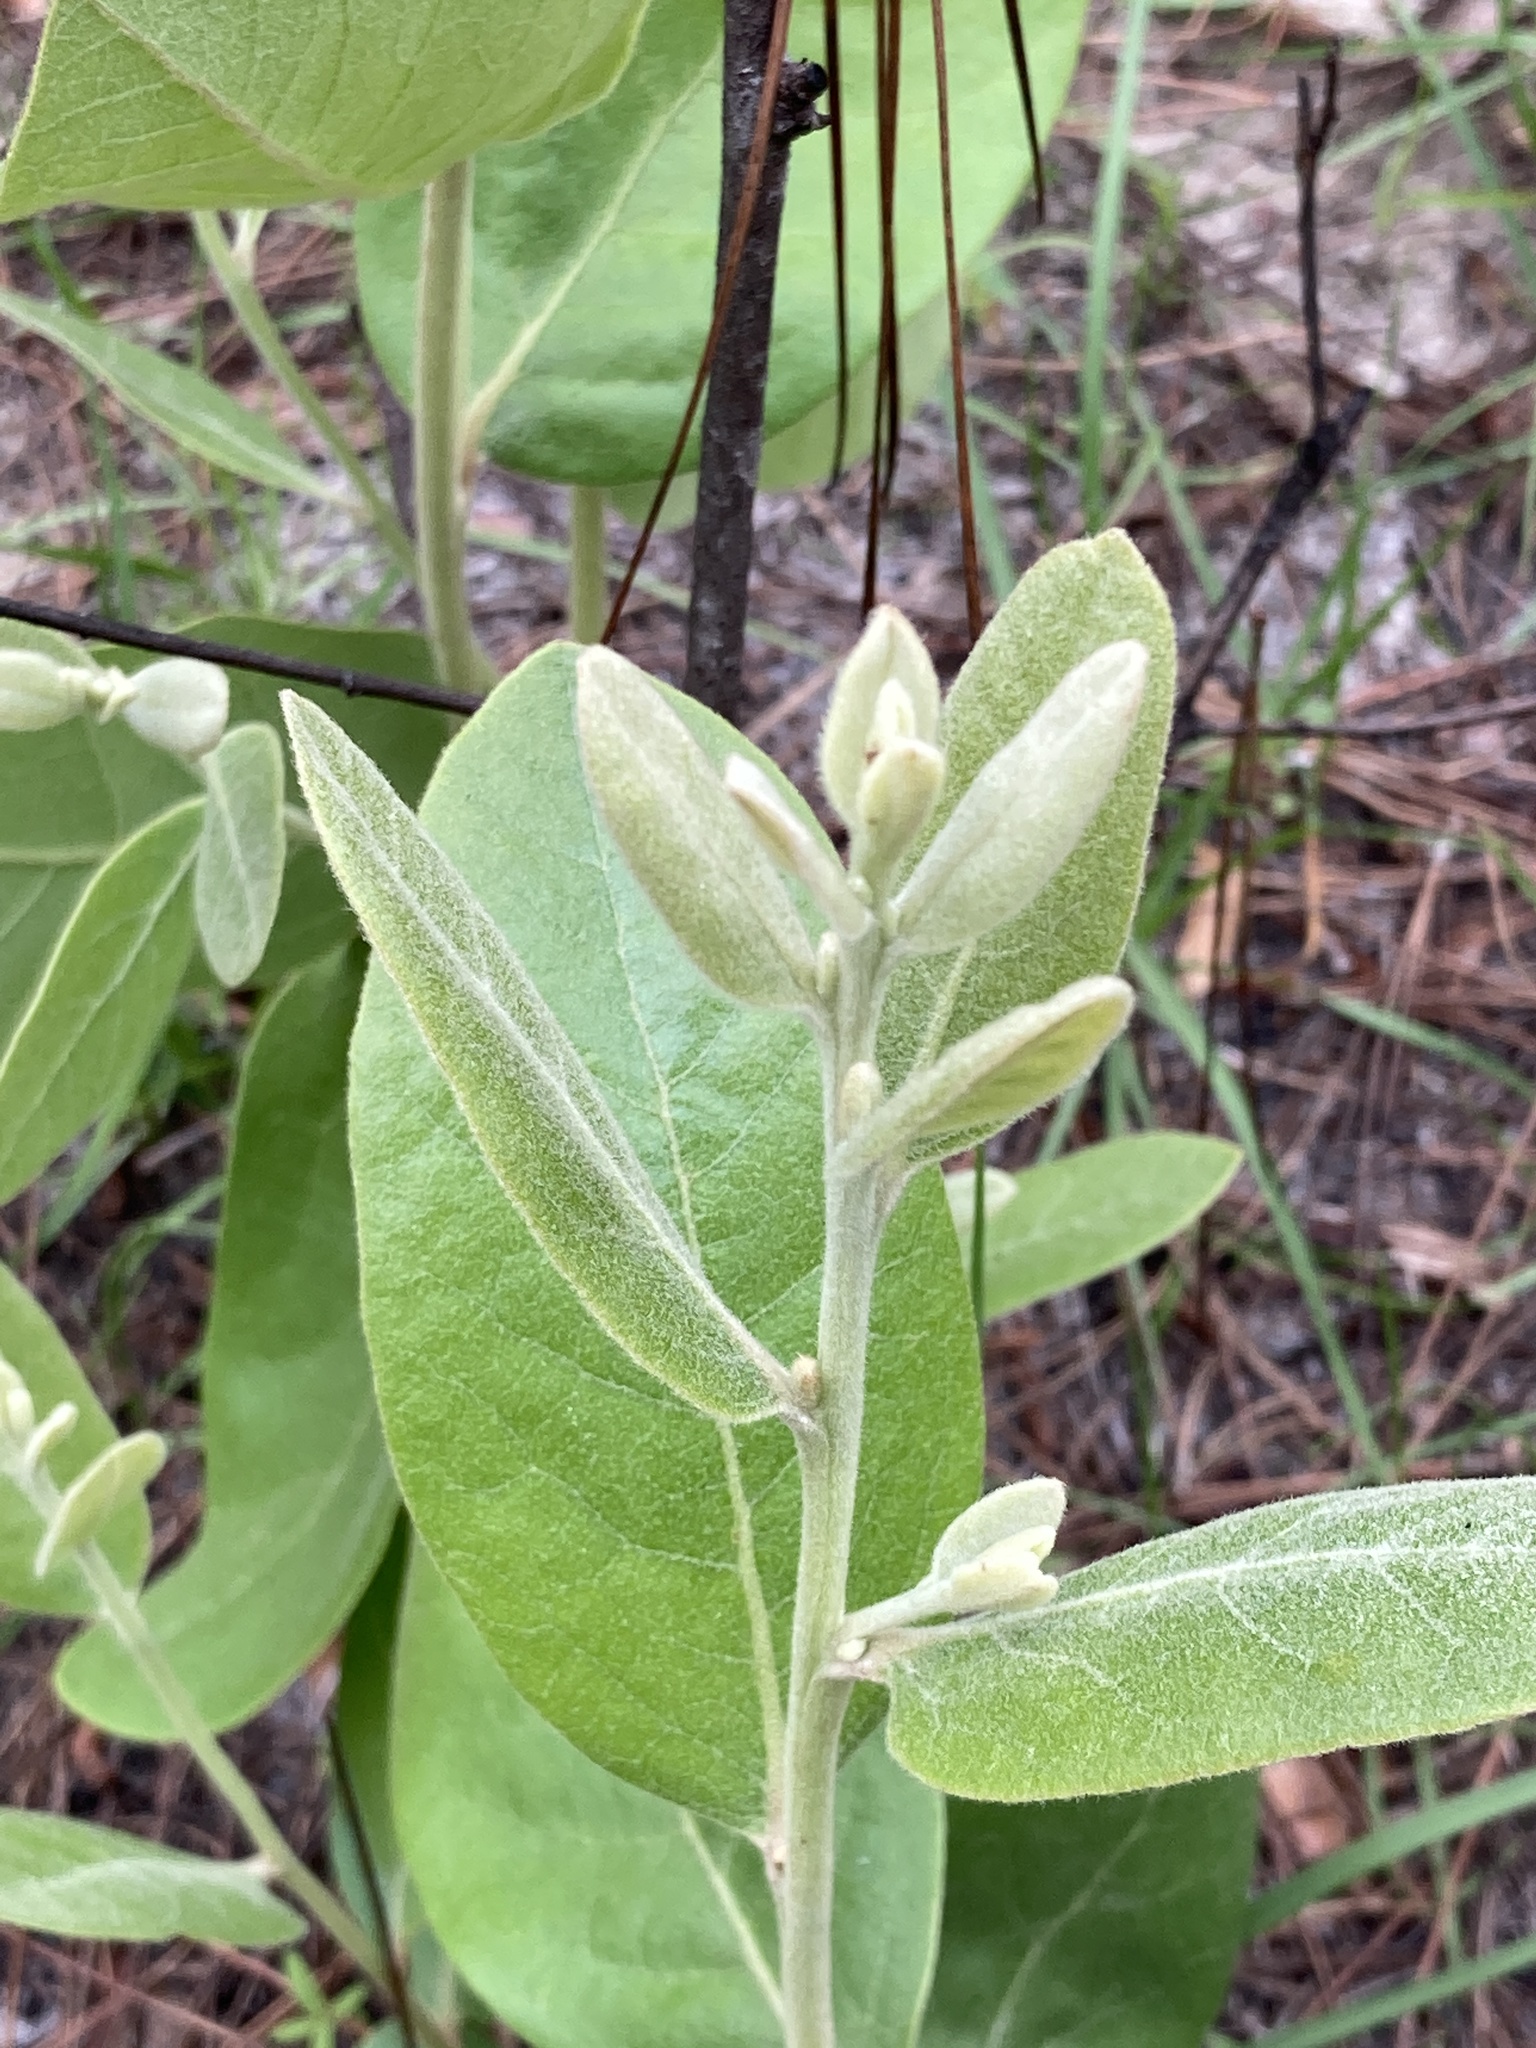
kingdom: Plantae
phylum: Tracheophyta
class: Magnoliopsida
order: Magnoliales
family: Annonaceae
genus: Asimina
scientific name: Asimina speciosa
